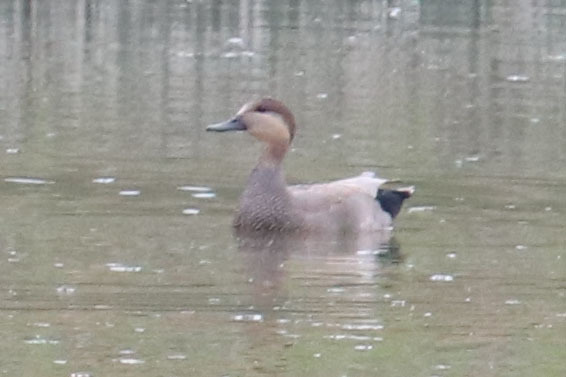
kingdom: Animalia
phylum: Chordata
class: Aves
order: Anseriformes
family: Anatidae
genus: Mareca
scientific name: Mareca strepera
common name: Gadwall
